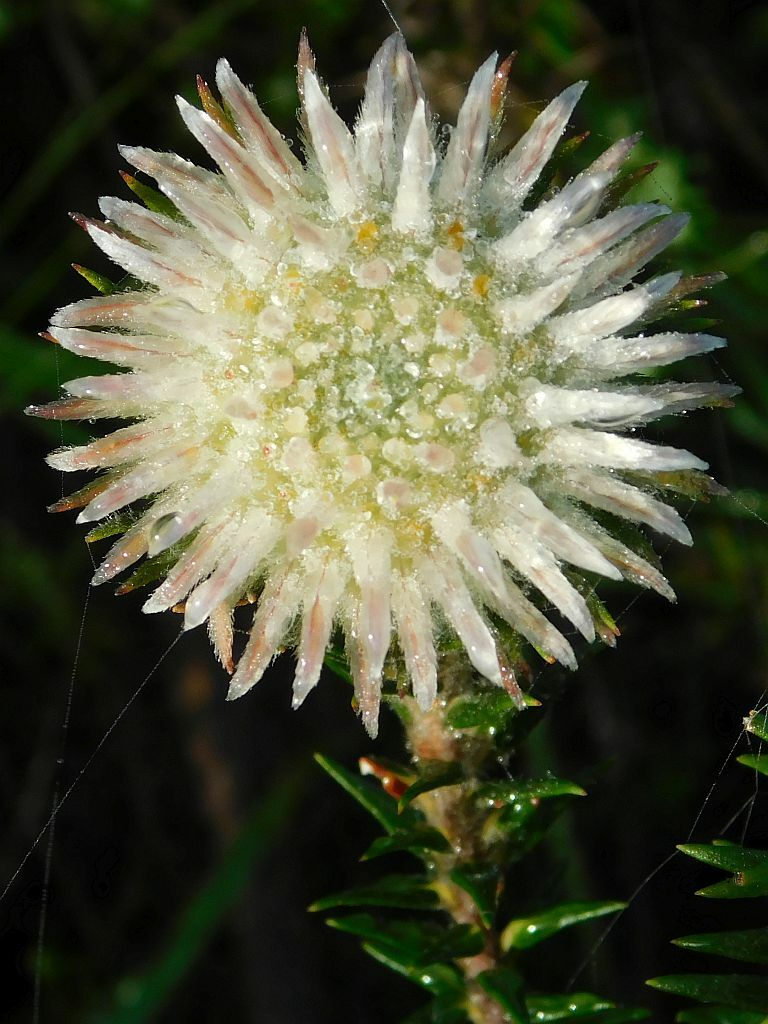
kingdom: Plantae
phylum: Tracheophyta
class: Magnoliopsida
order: Rosales
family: Rhamnaceae
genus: Phylica
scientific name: Phylica calcarata
